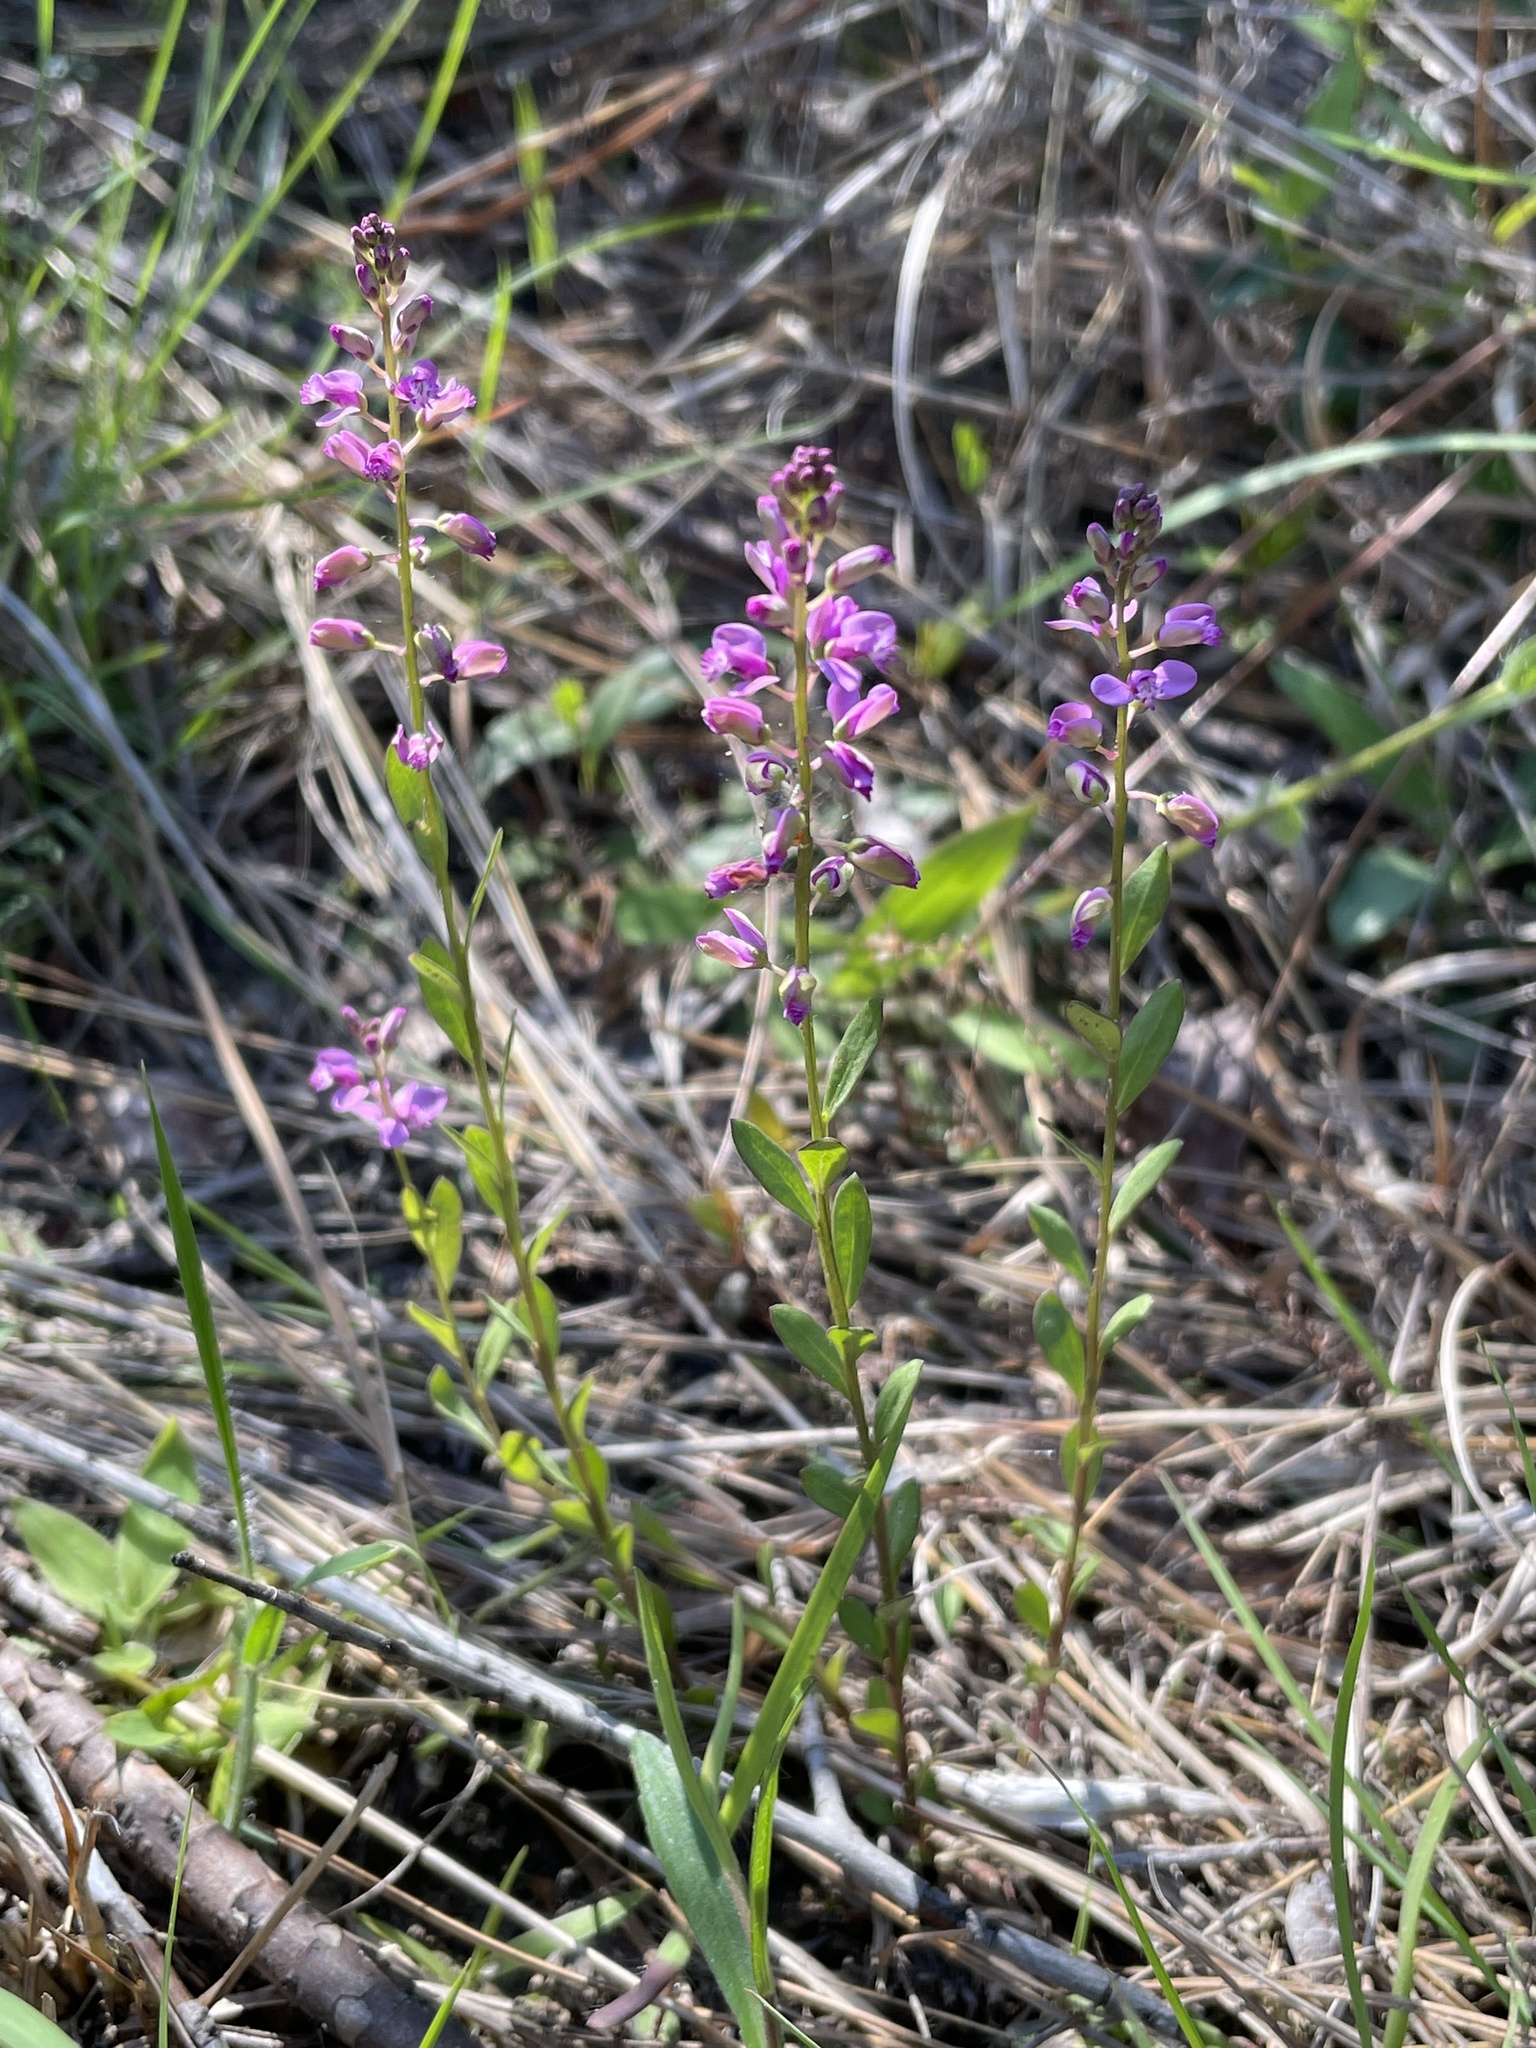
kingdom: Plantae
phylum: Tracheophyta
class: Magnoliopsida
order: Fabales
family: Polygalaceae
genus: Polygala
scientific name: Polygala crenata
